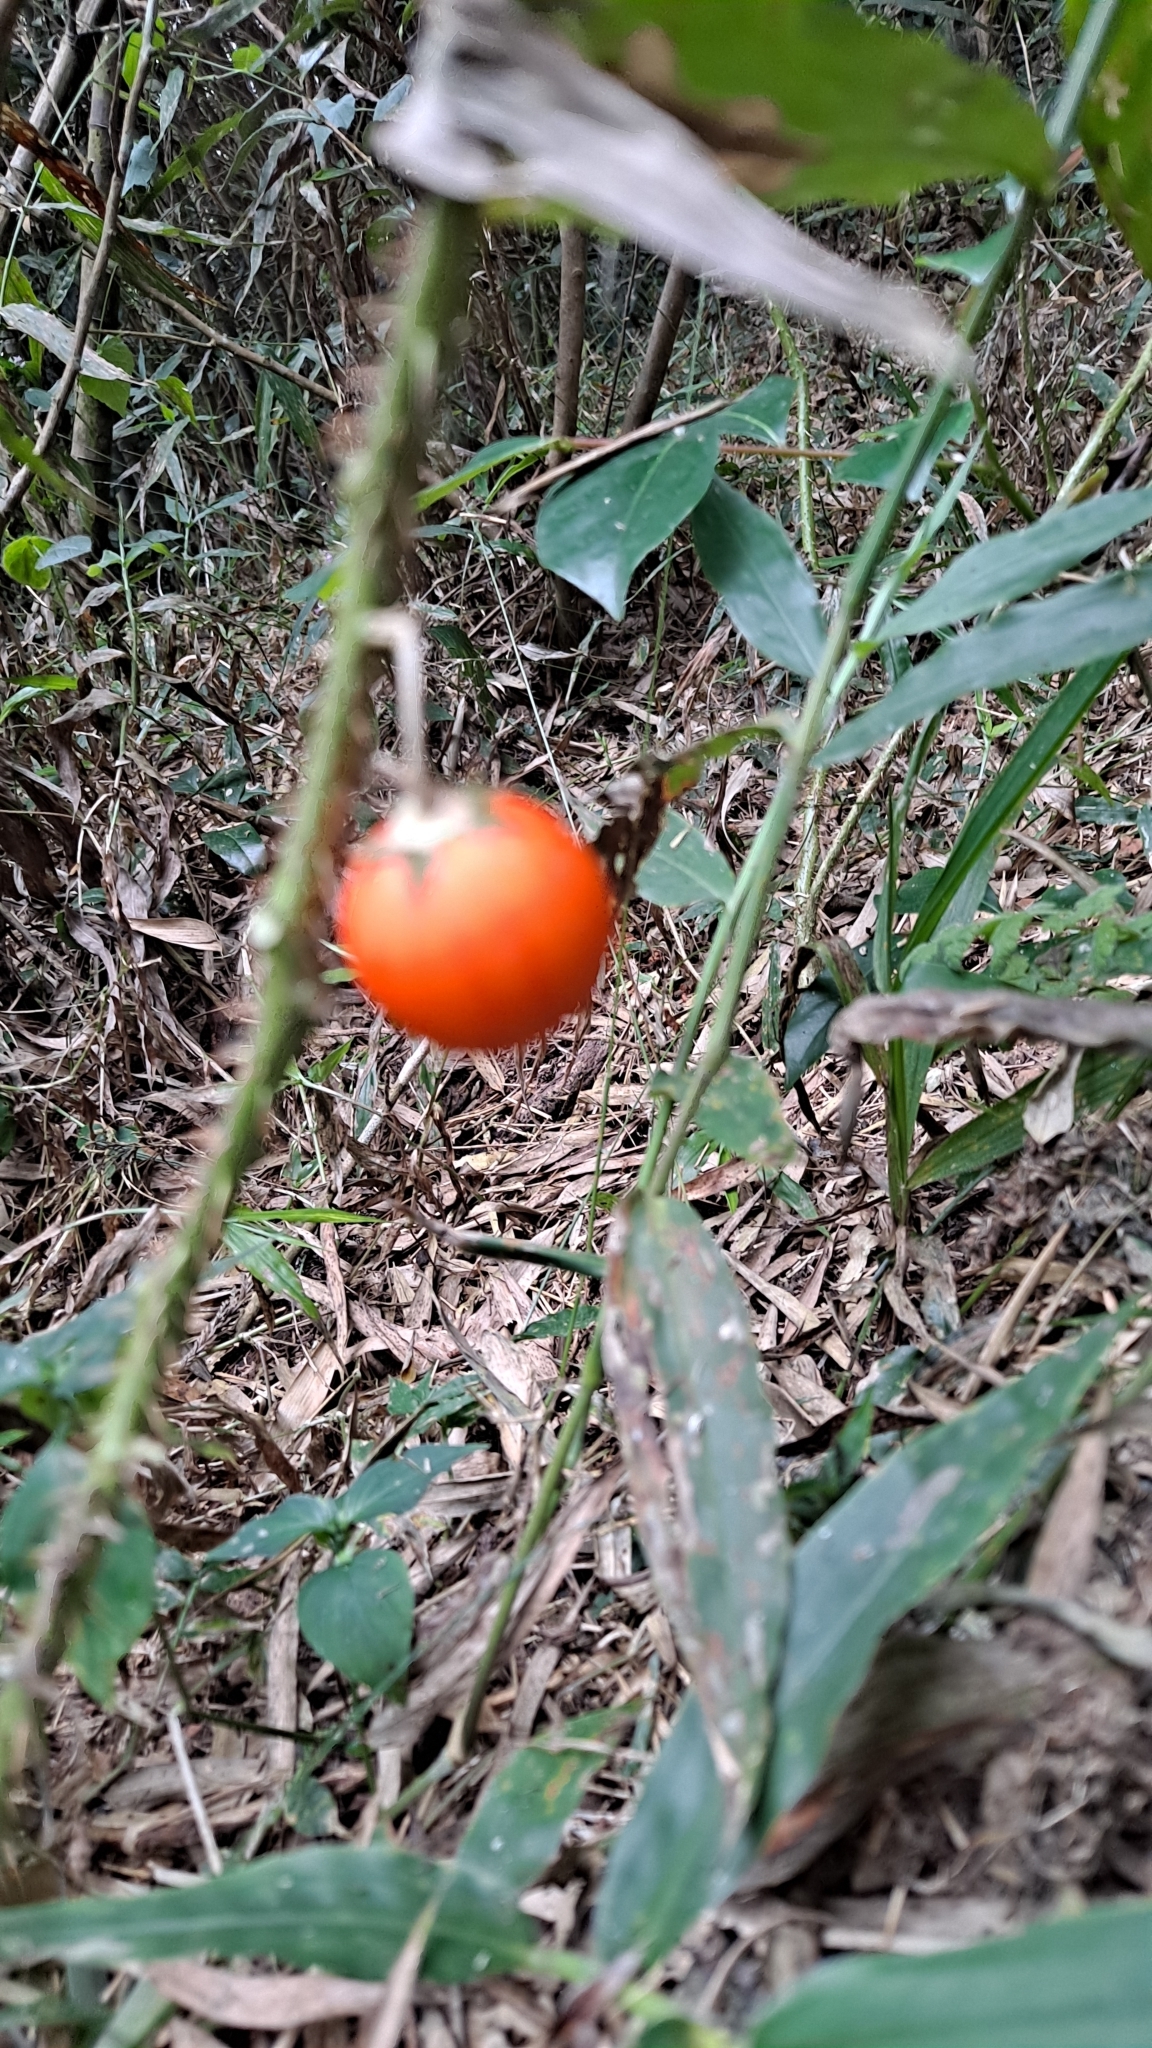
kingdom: Plantae
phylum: Tracheophyta
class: Magnoliopsida
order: Solanales
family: Solanaceae
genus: Solanum
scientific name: Solanum capsicoides
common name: Cockroach berry
